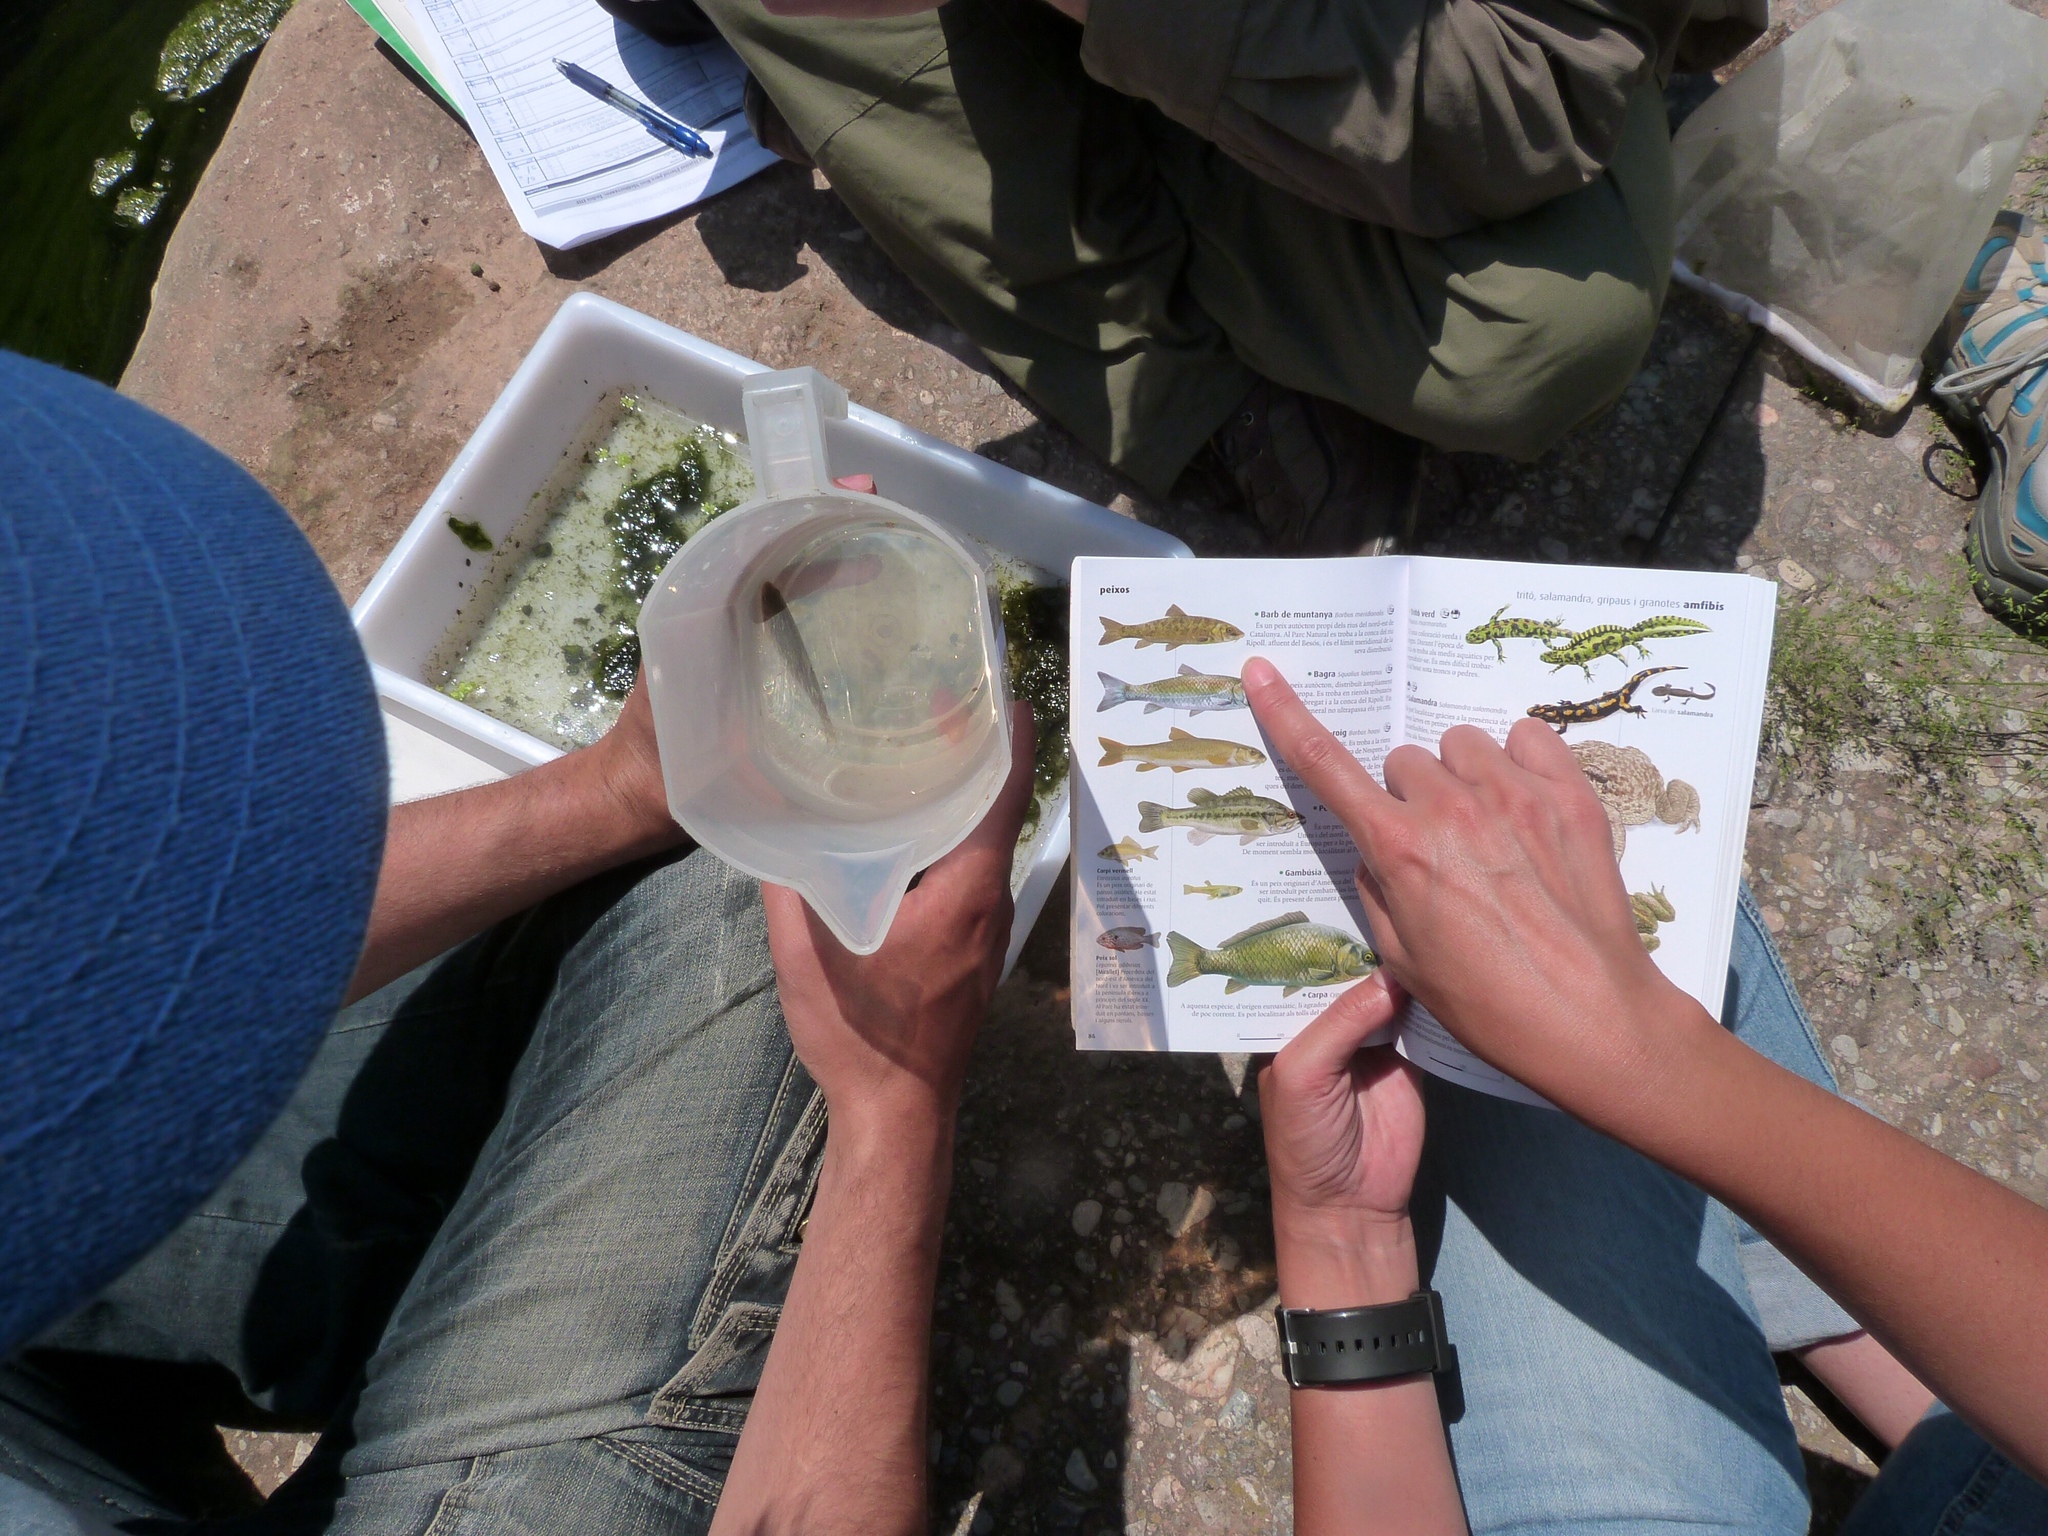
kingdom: Animalia
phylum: Chordata
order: Cypriniformes
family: Cyprinidae
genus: Barbus
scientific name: Barbus meridionalis
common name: Mediterranean barbel
